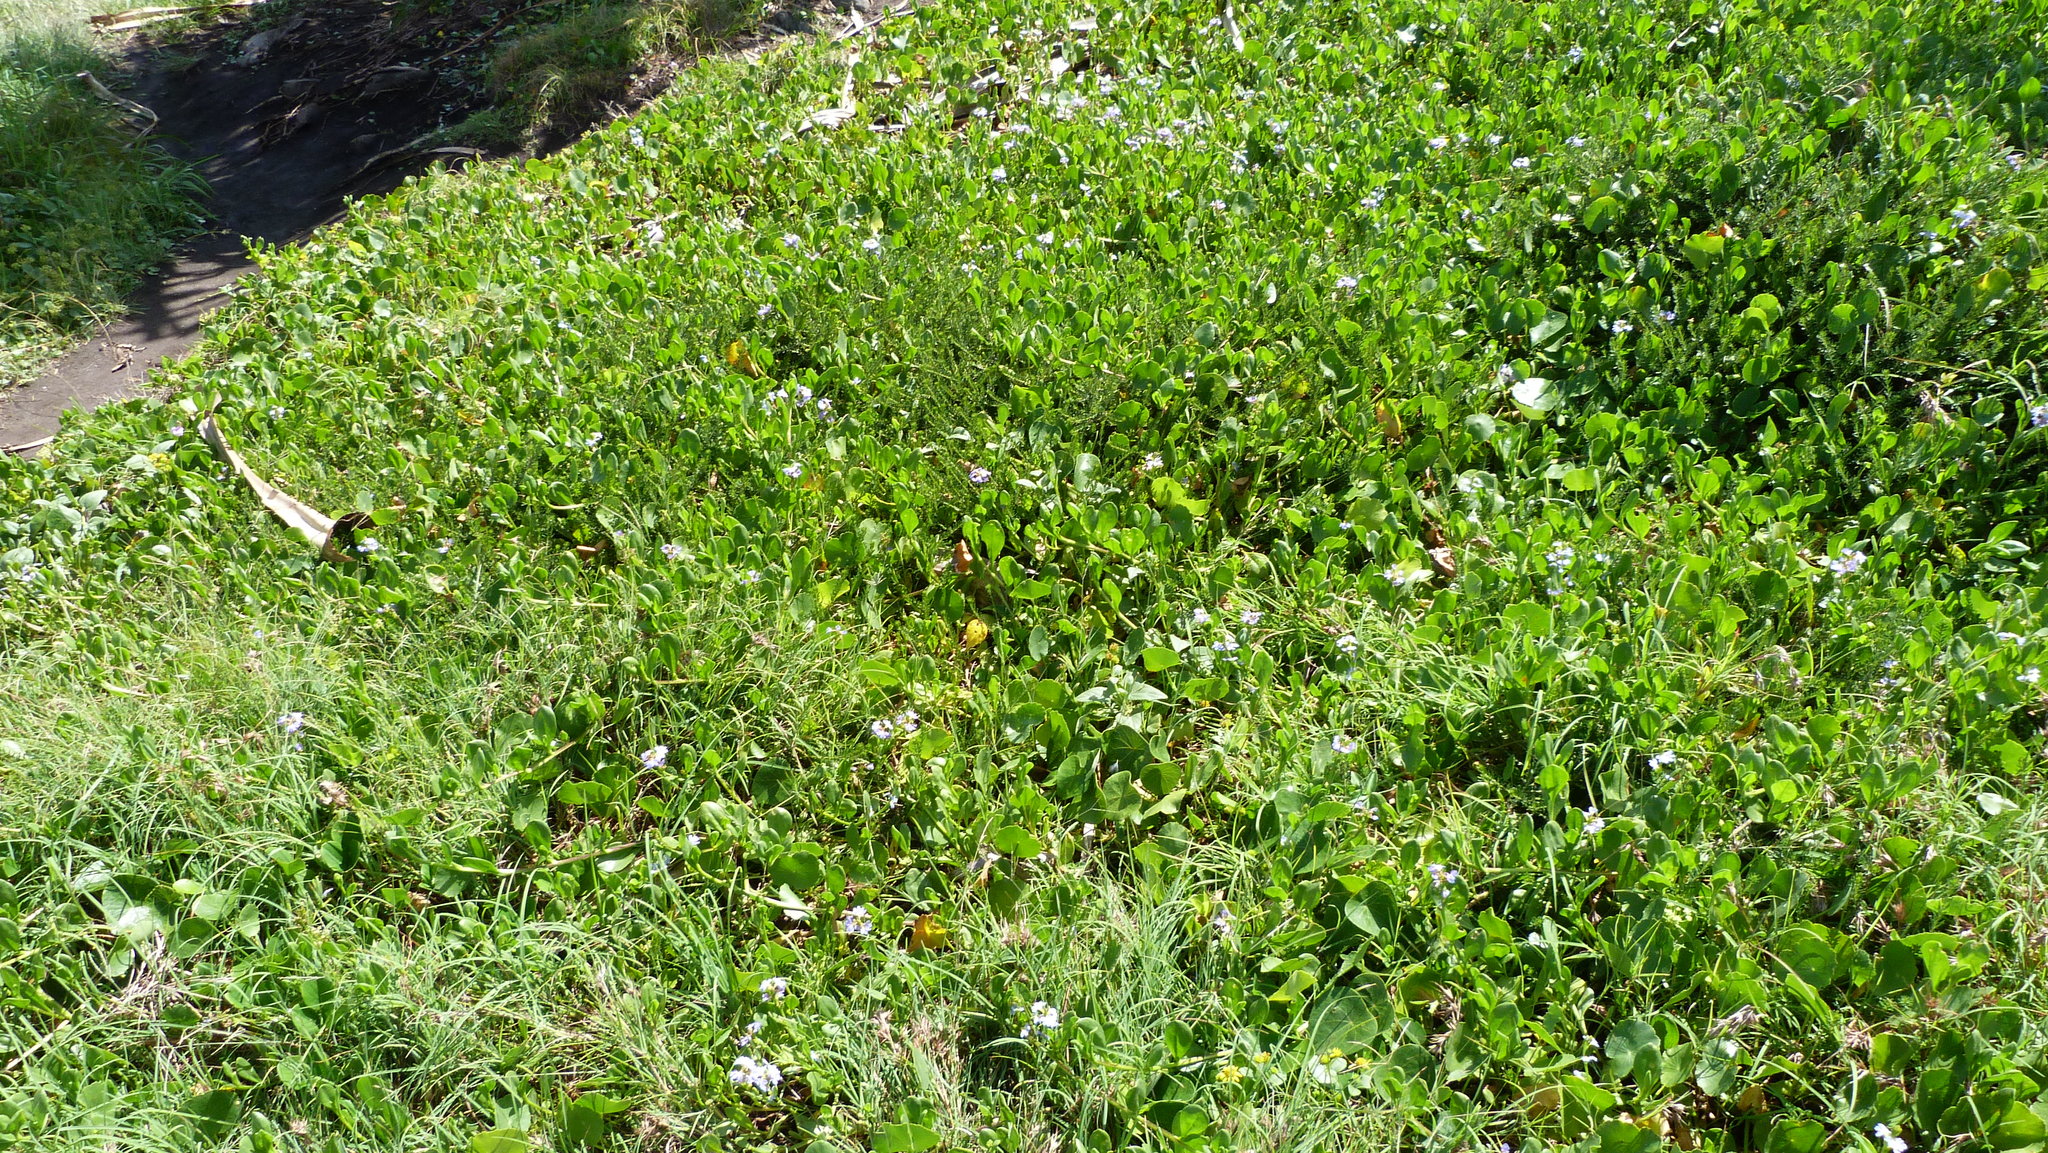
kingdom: Plantae
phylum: Tracheophyta
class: Magnoliopsida
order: Asterales
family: Goodeniaceae
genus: Scaevola
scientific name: Scaevola calendulacea
